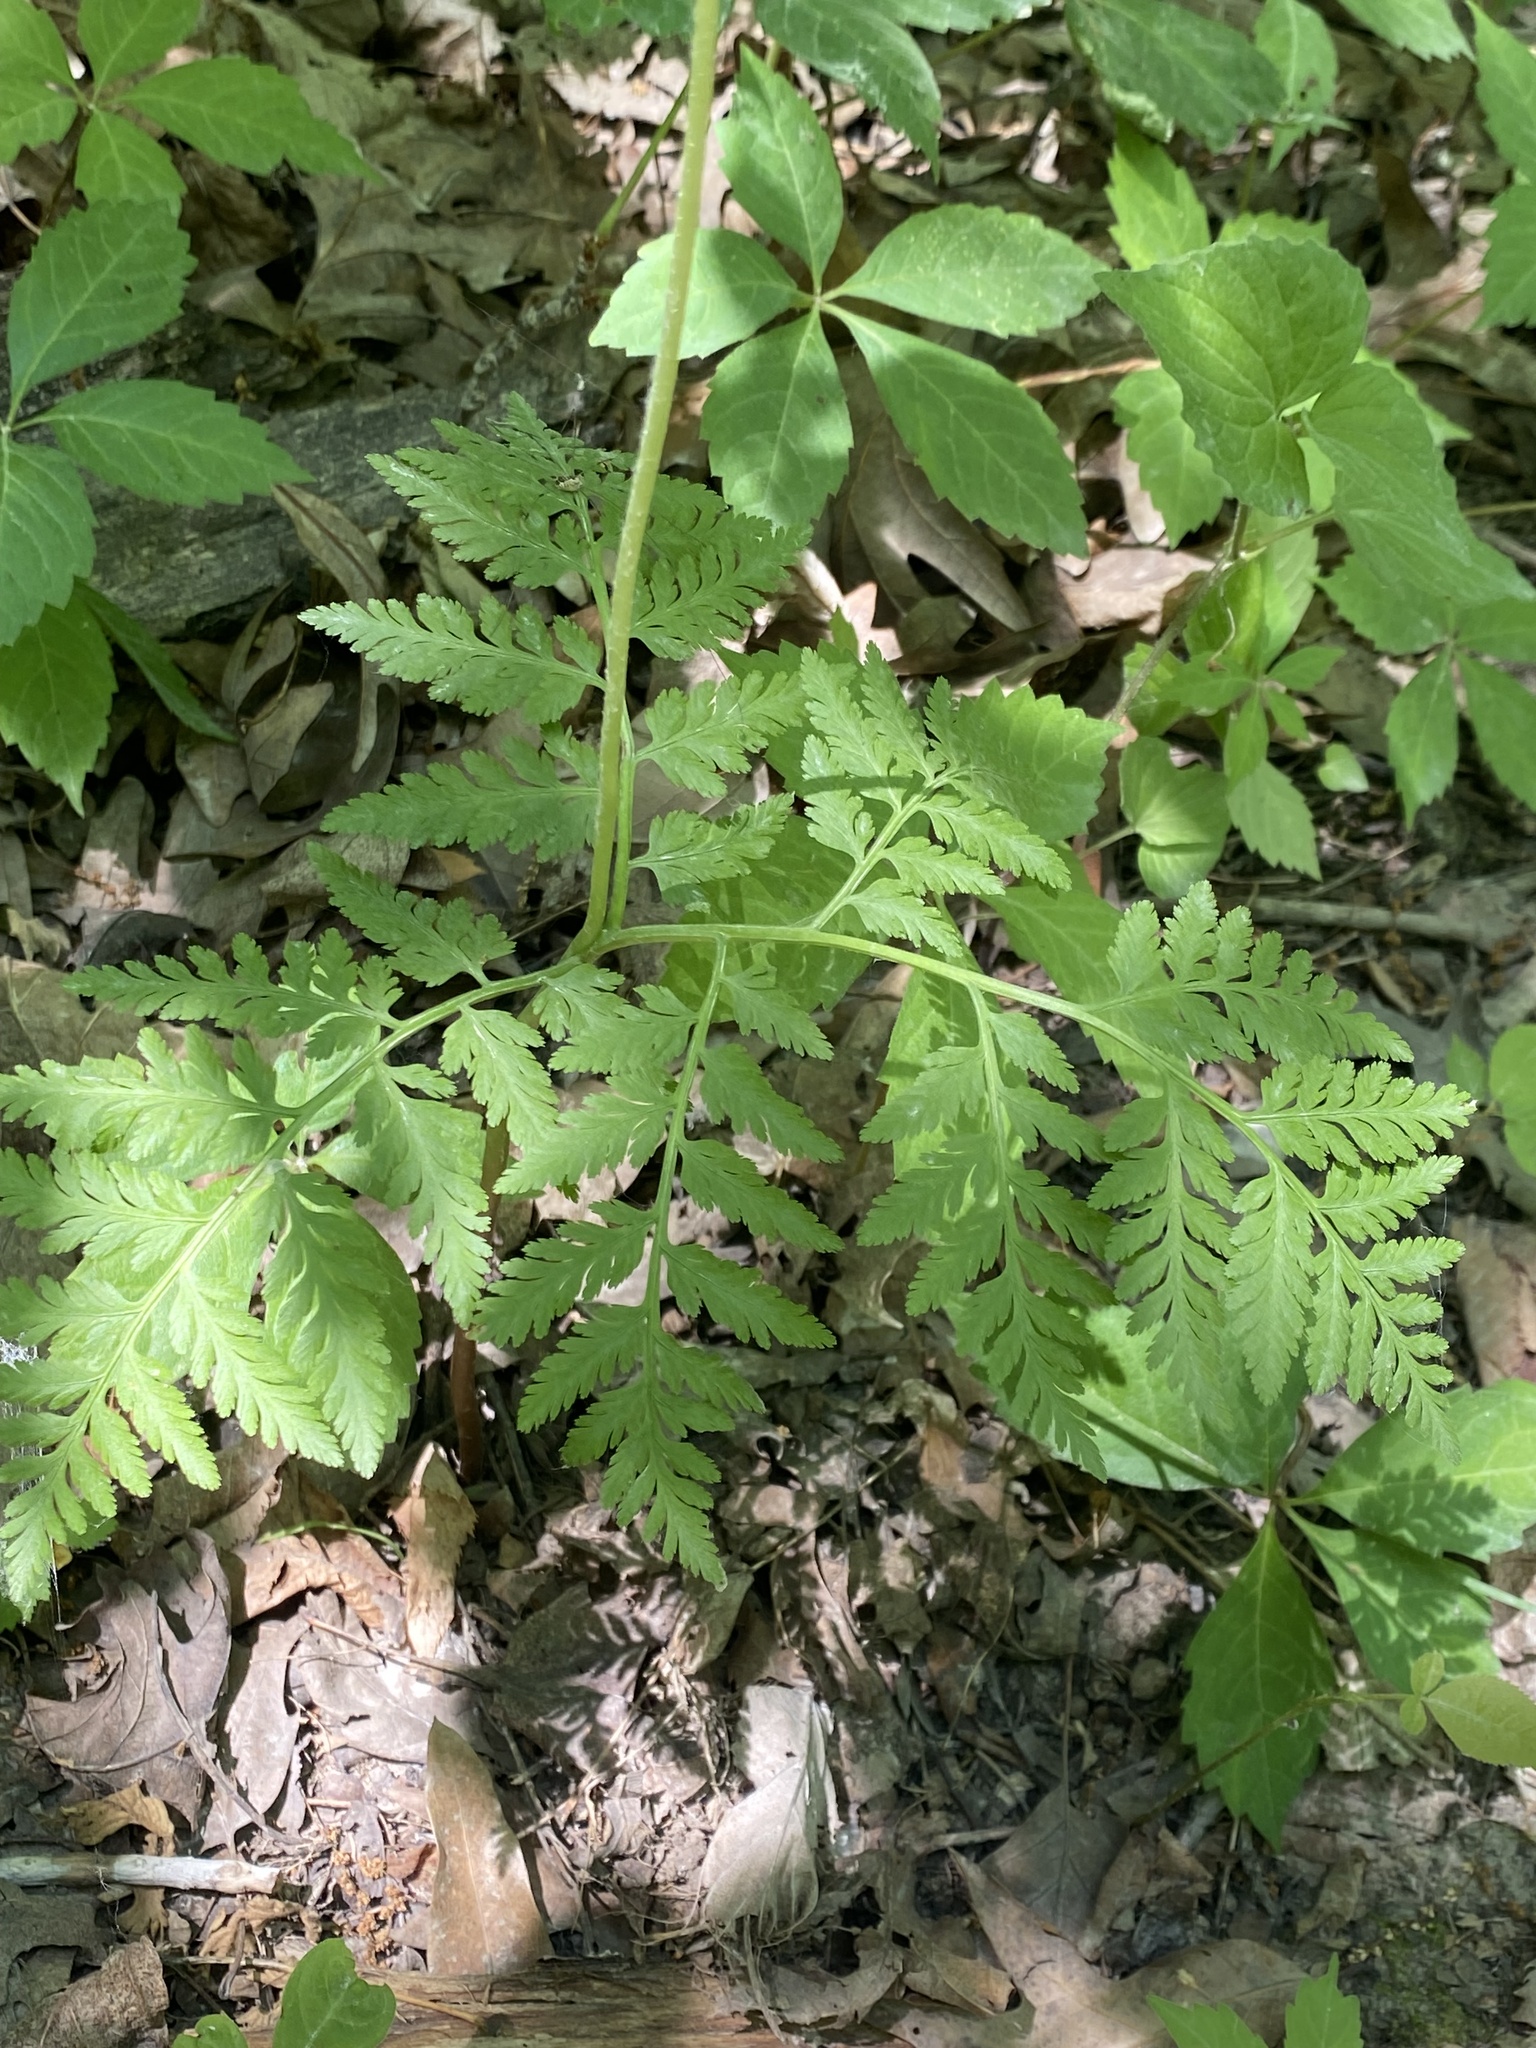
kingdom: Plantae
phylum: Tracheophyta
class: Polypodiopsida
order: Ophioglossales
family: Ophioglossaceae
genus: Botrypus
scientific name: Botrypus virginianus
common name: Common grapefern
